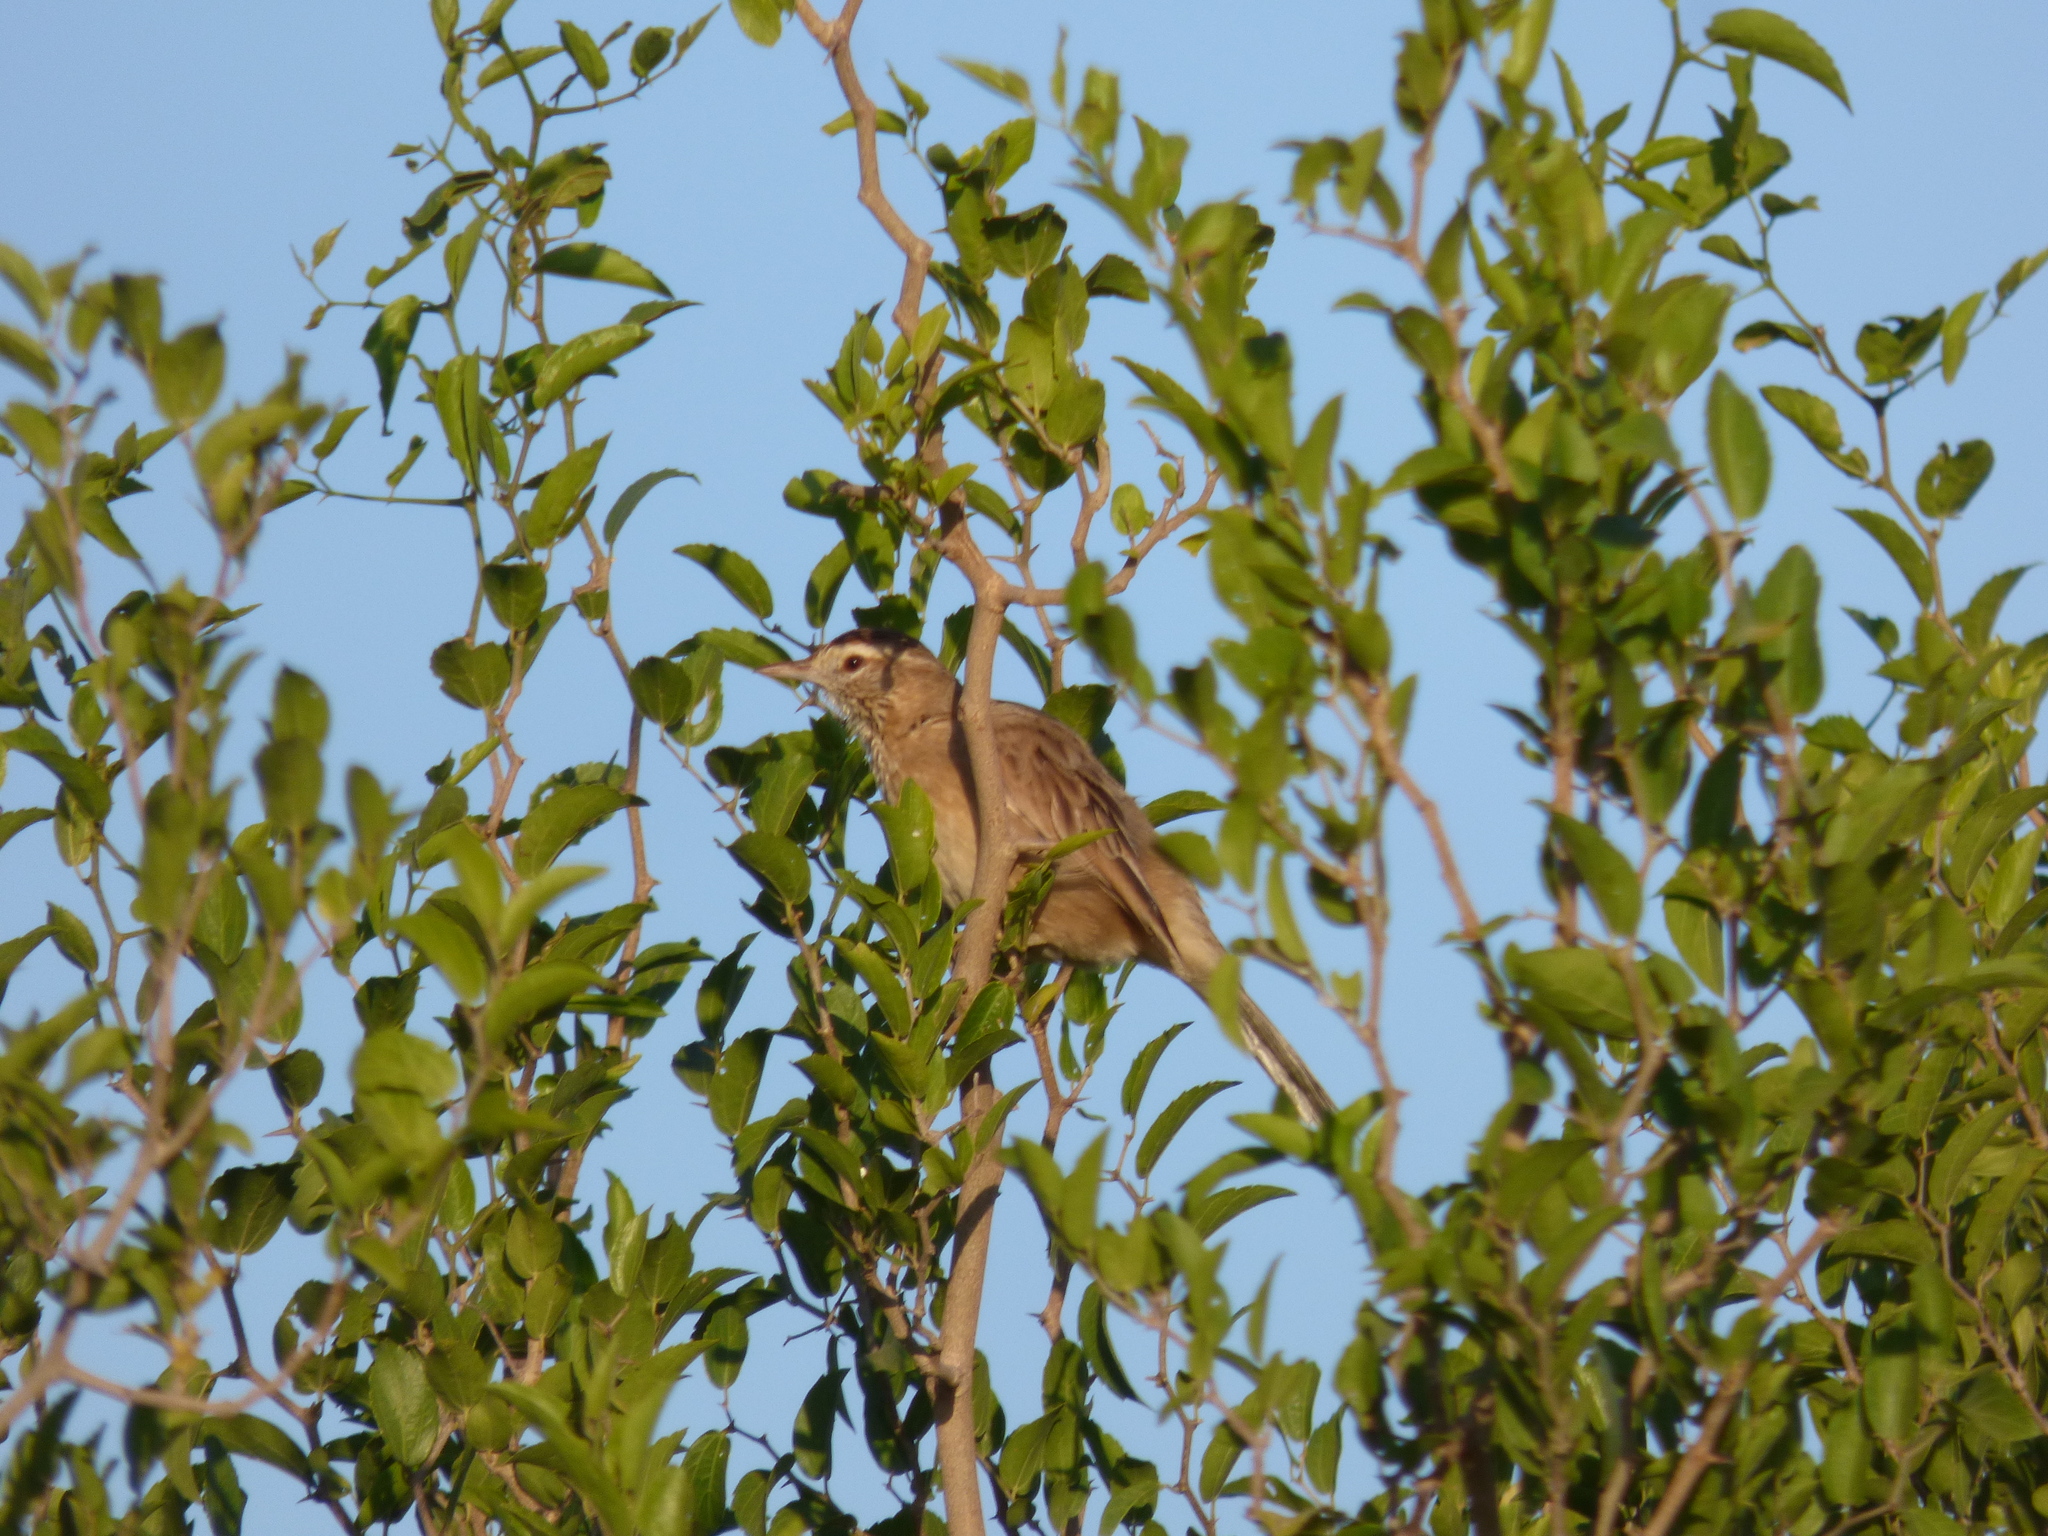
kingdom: Animalia
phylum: Chordata
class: Aves
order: Passeriformes
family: Furnariidae
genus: Anumbius
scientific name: Anumbius annumbi
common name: Firewood-gatherer
